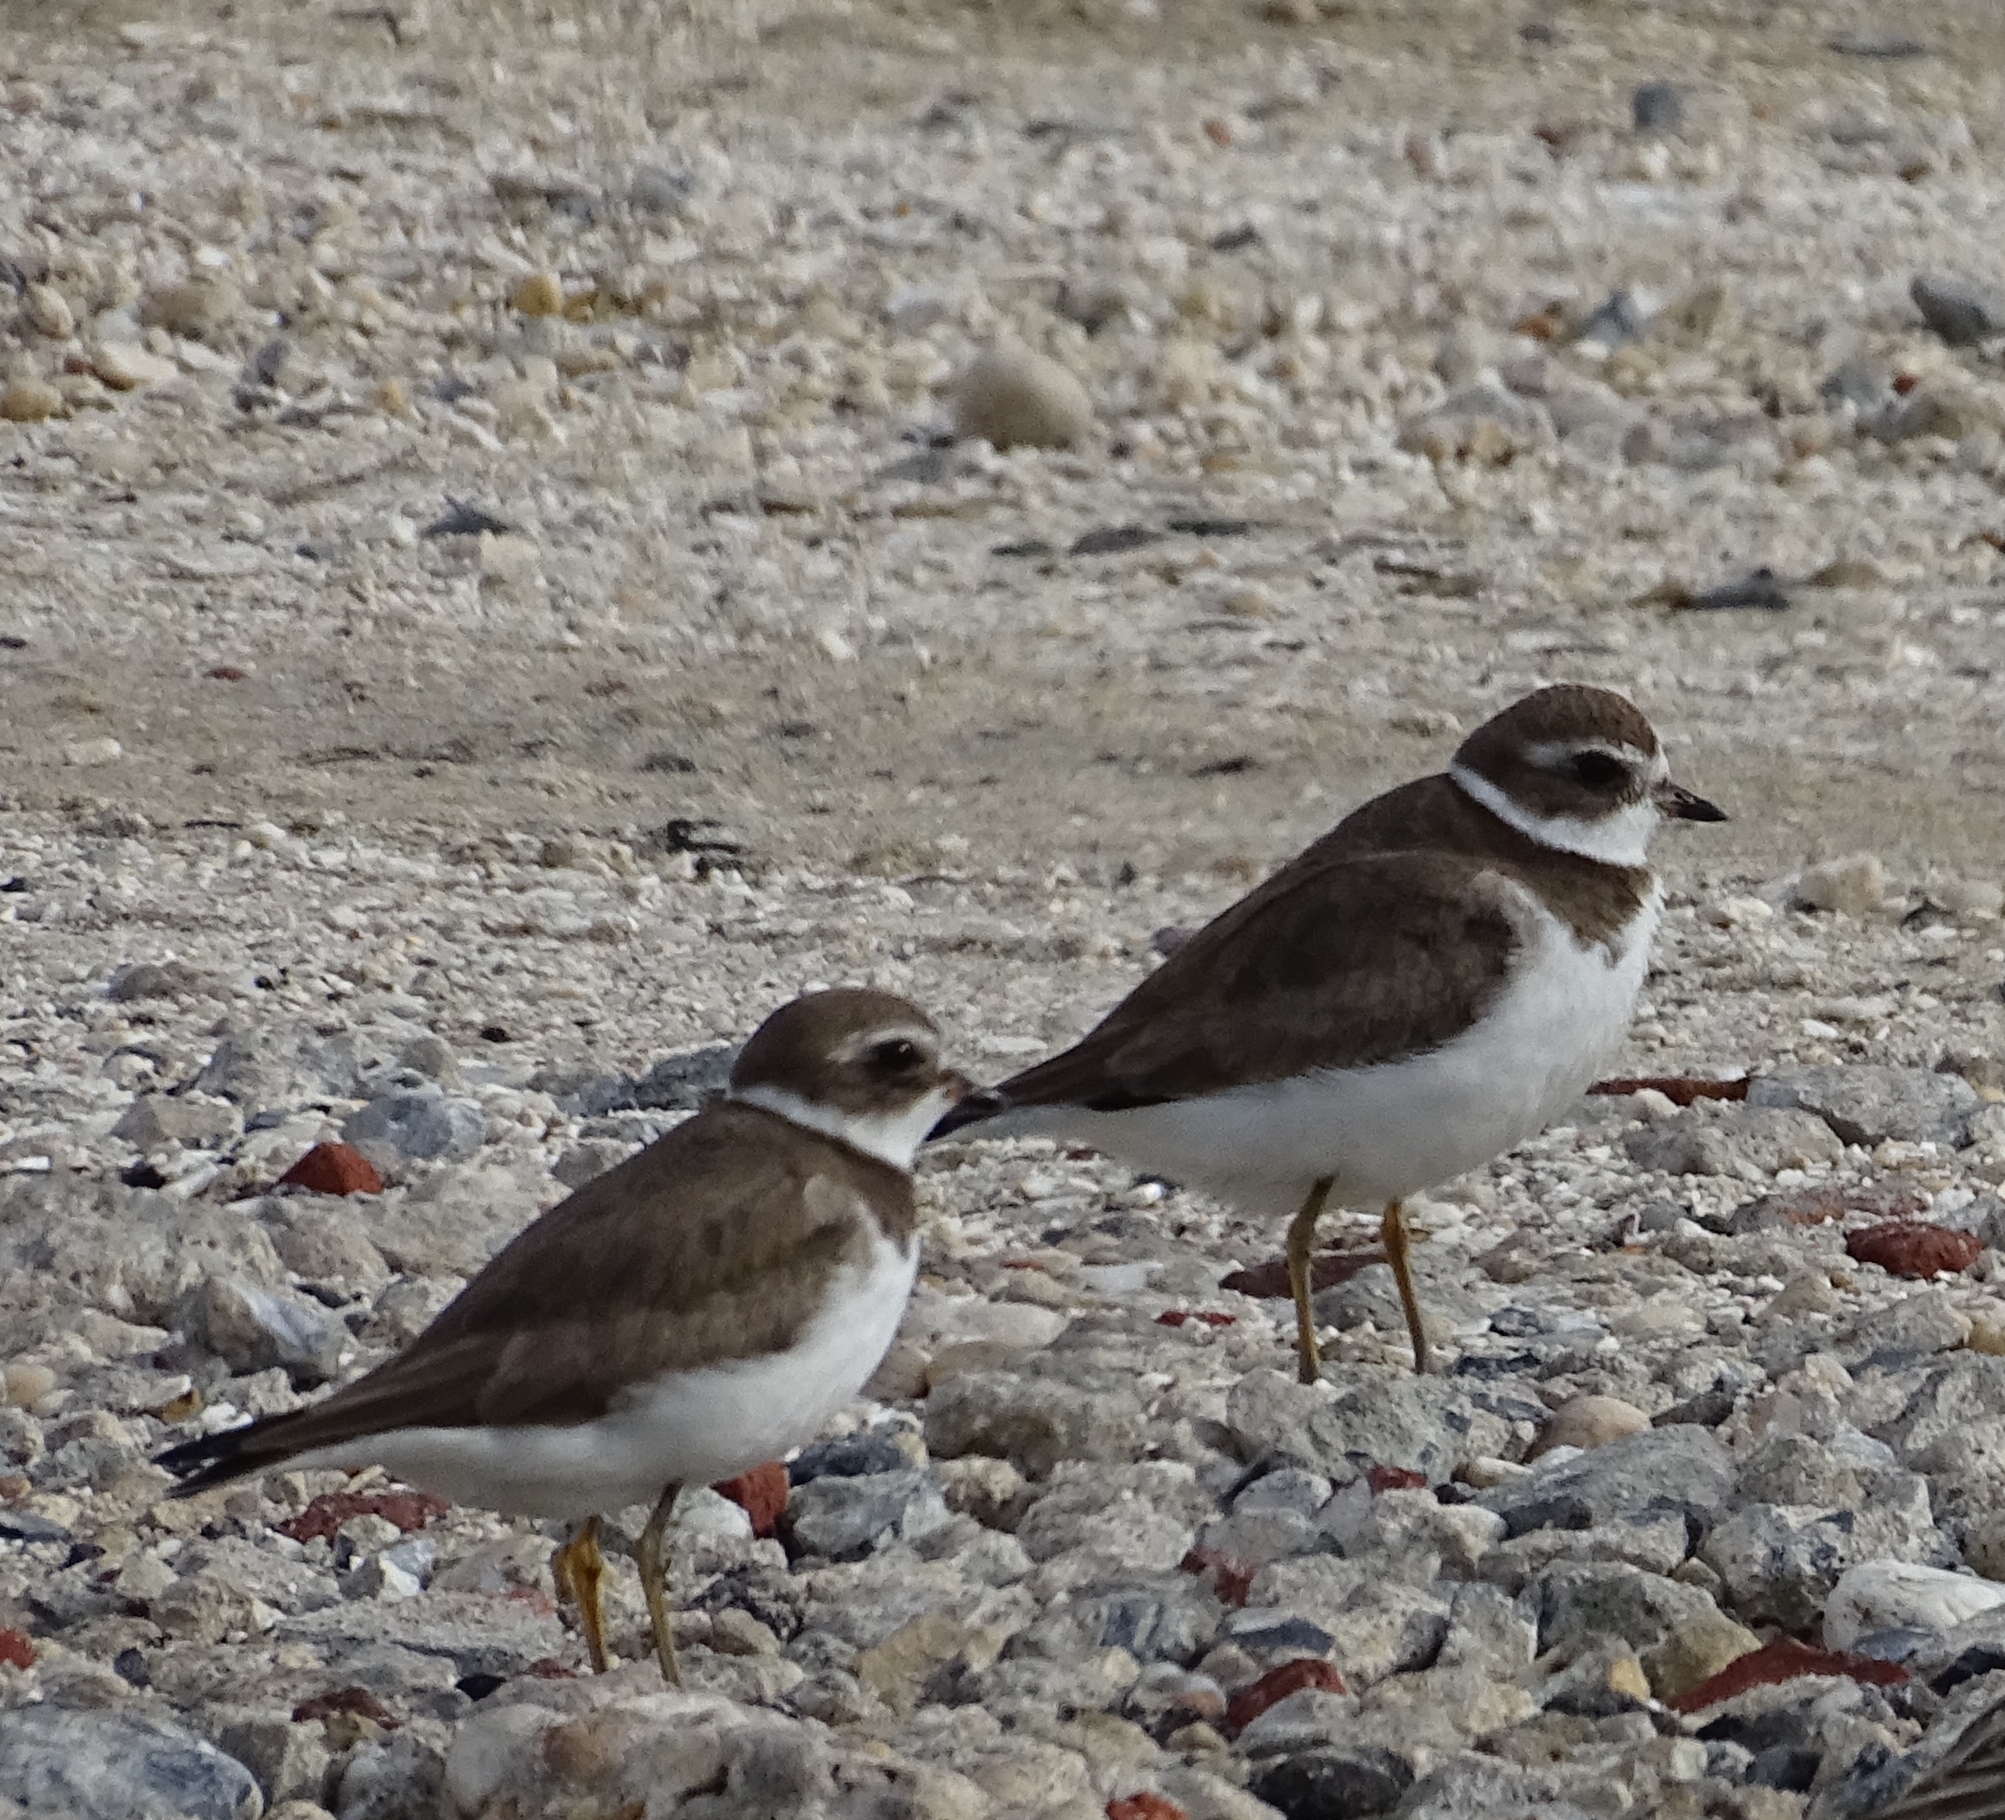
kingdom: Animalia
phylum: Chordata
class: Aves
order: Charadriiformes
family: Charadriidae
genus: Charadrius
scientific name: Charadrius semipalmatus
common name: Semipalmated plover
